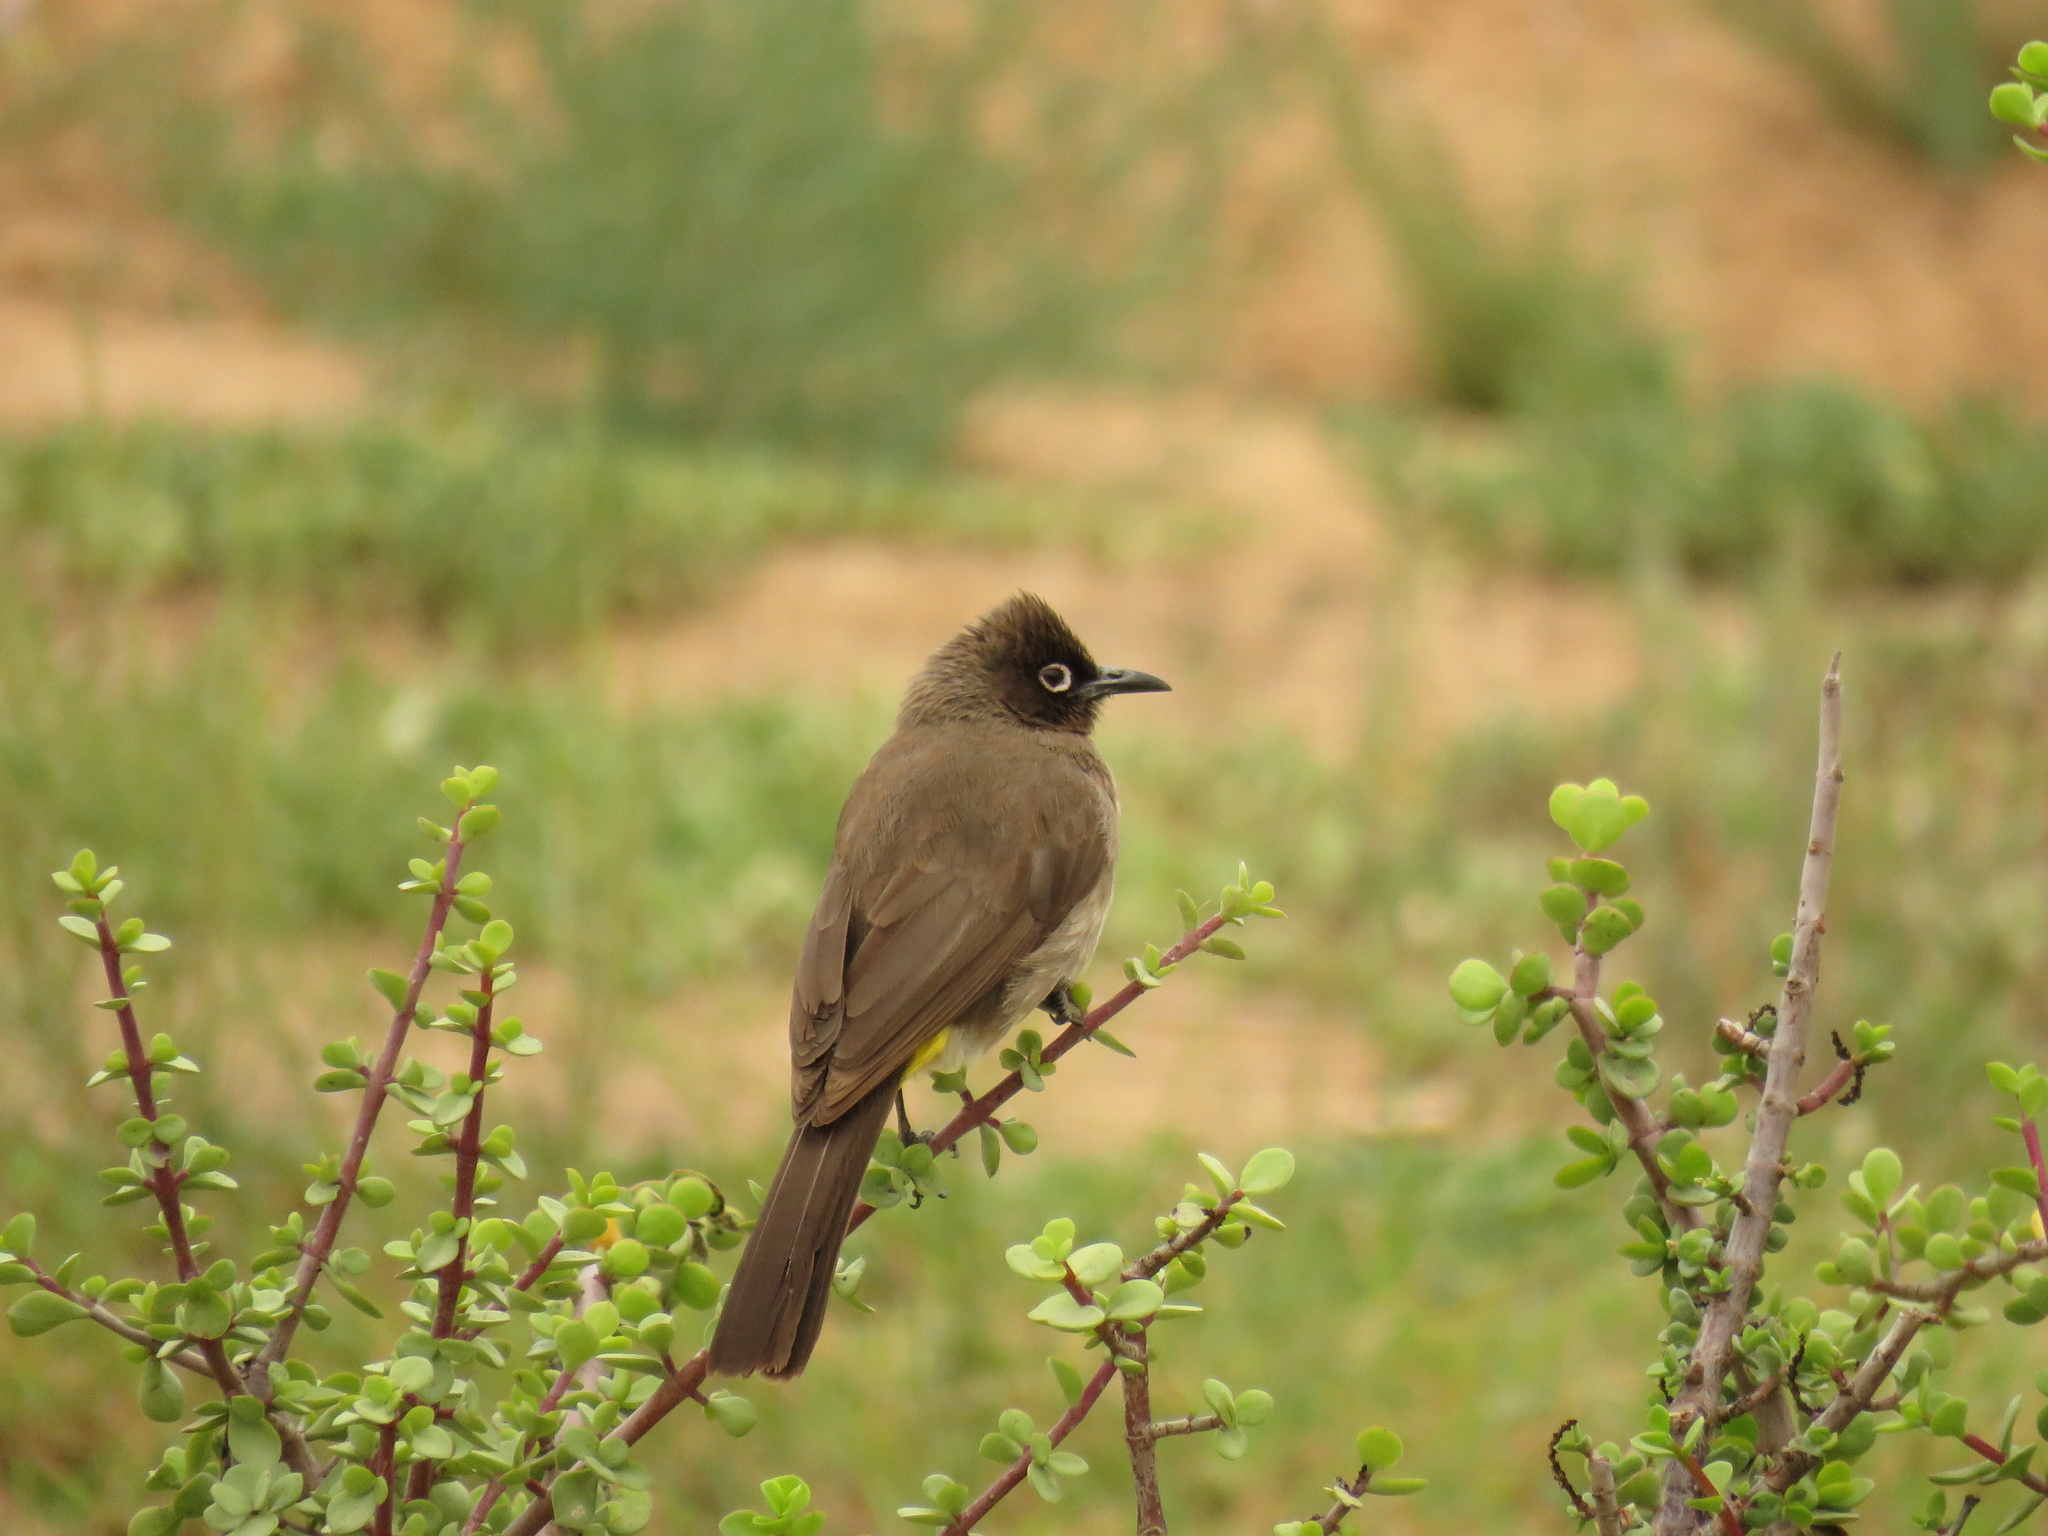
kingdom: Animalia
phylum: Chordata
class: Aves
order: Passeriformes
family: Pycnonotidae
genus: Pycnonotus
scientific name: Pycnonotus capensis
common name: Cape bulbul
